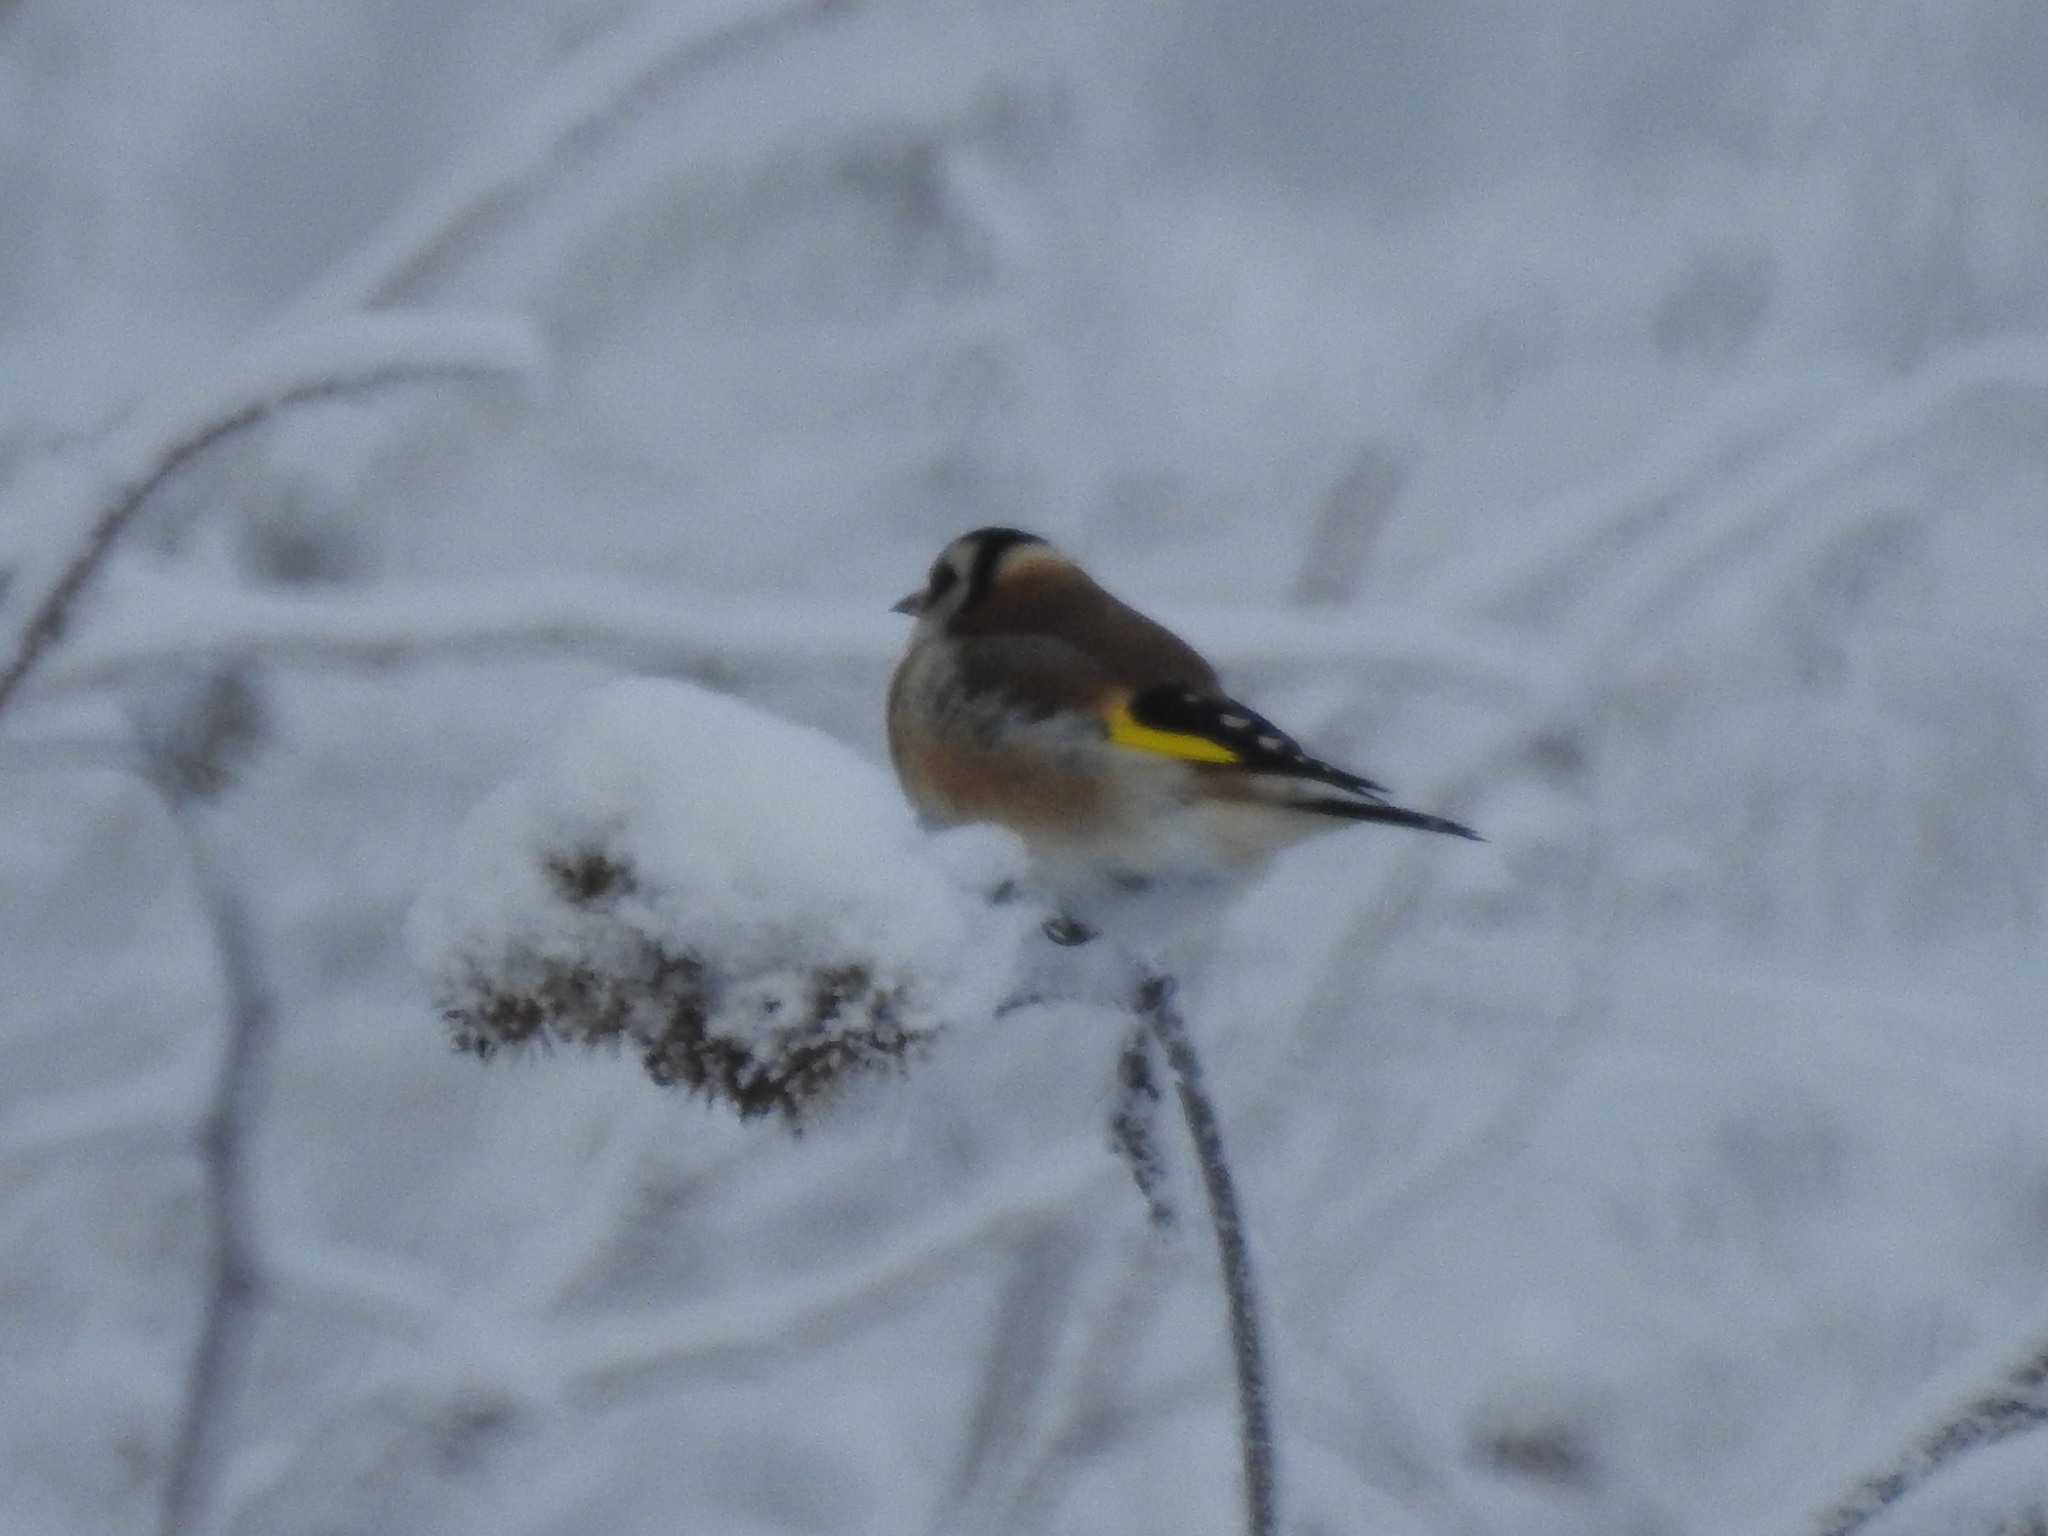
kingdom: Animalia
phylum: Chordata
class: Aves
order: Passeriformes
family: Fringillidae
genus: Carduelis
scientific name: Carduelis carduelis
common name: European goldfinch
